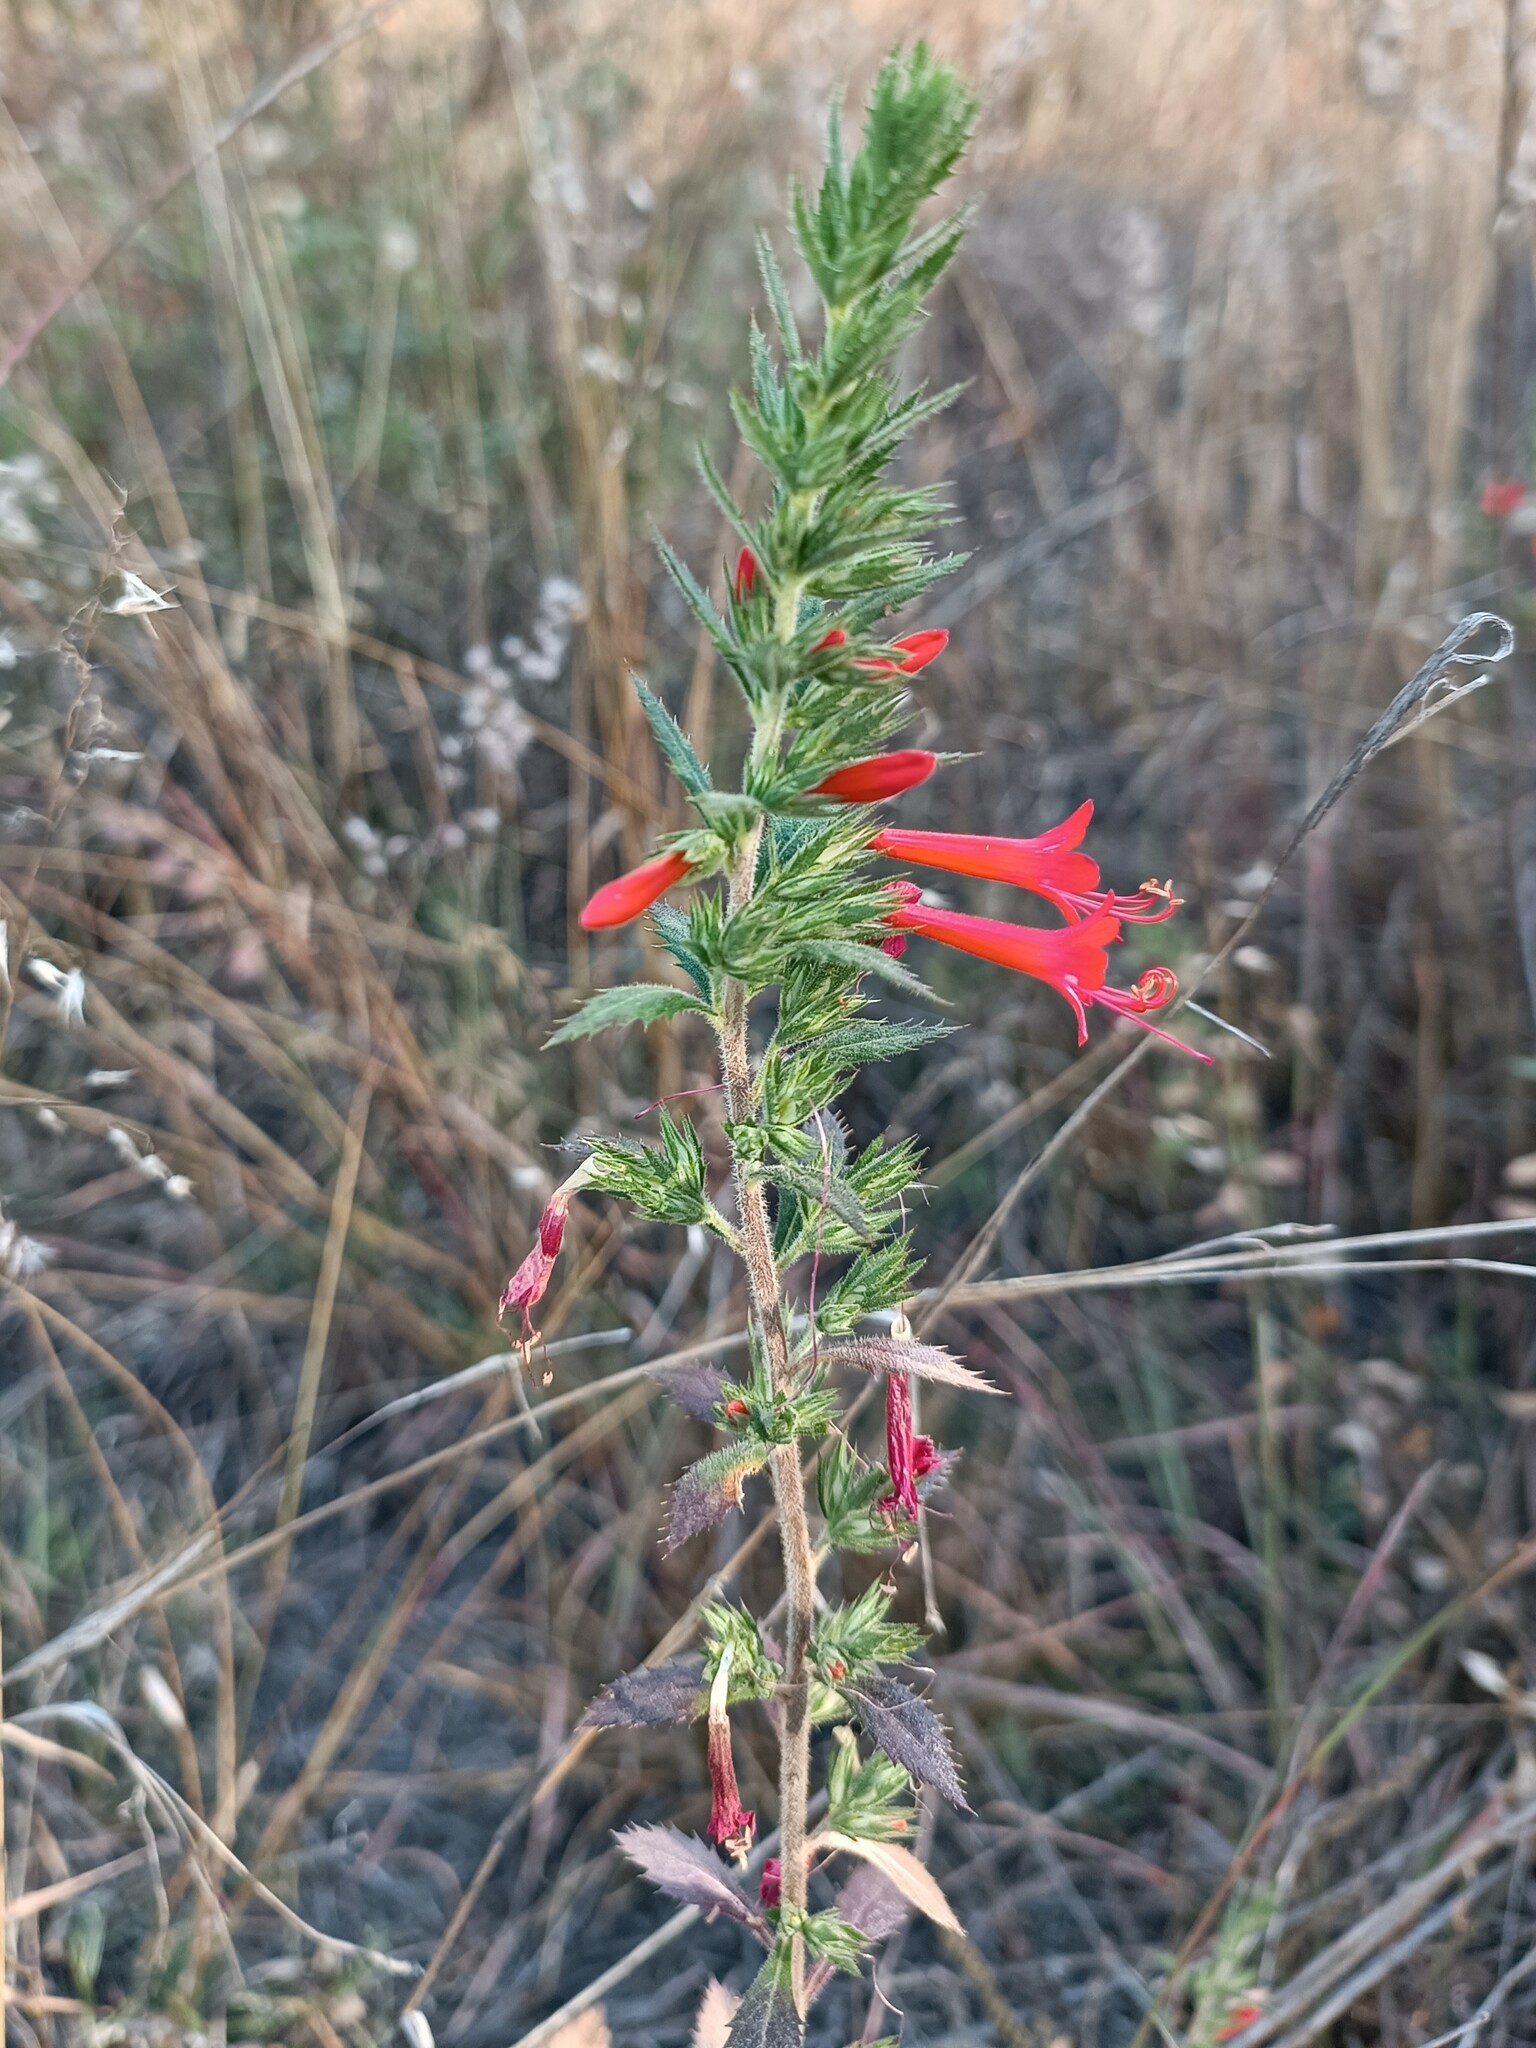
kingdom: Plantae
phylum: Tracheophyta
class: Magnoliopsida
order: Ericales
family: Polemoniaceae
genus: Loeselia
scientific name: Loeselia mexicana
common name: Mexican false calico
